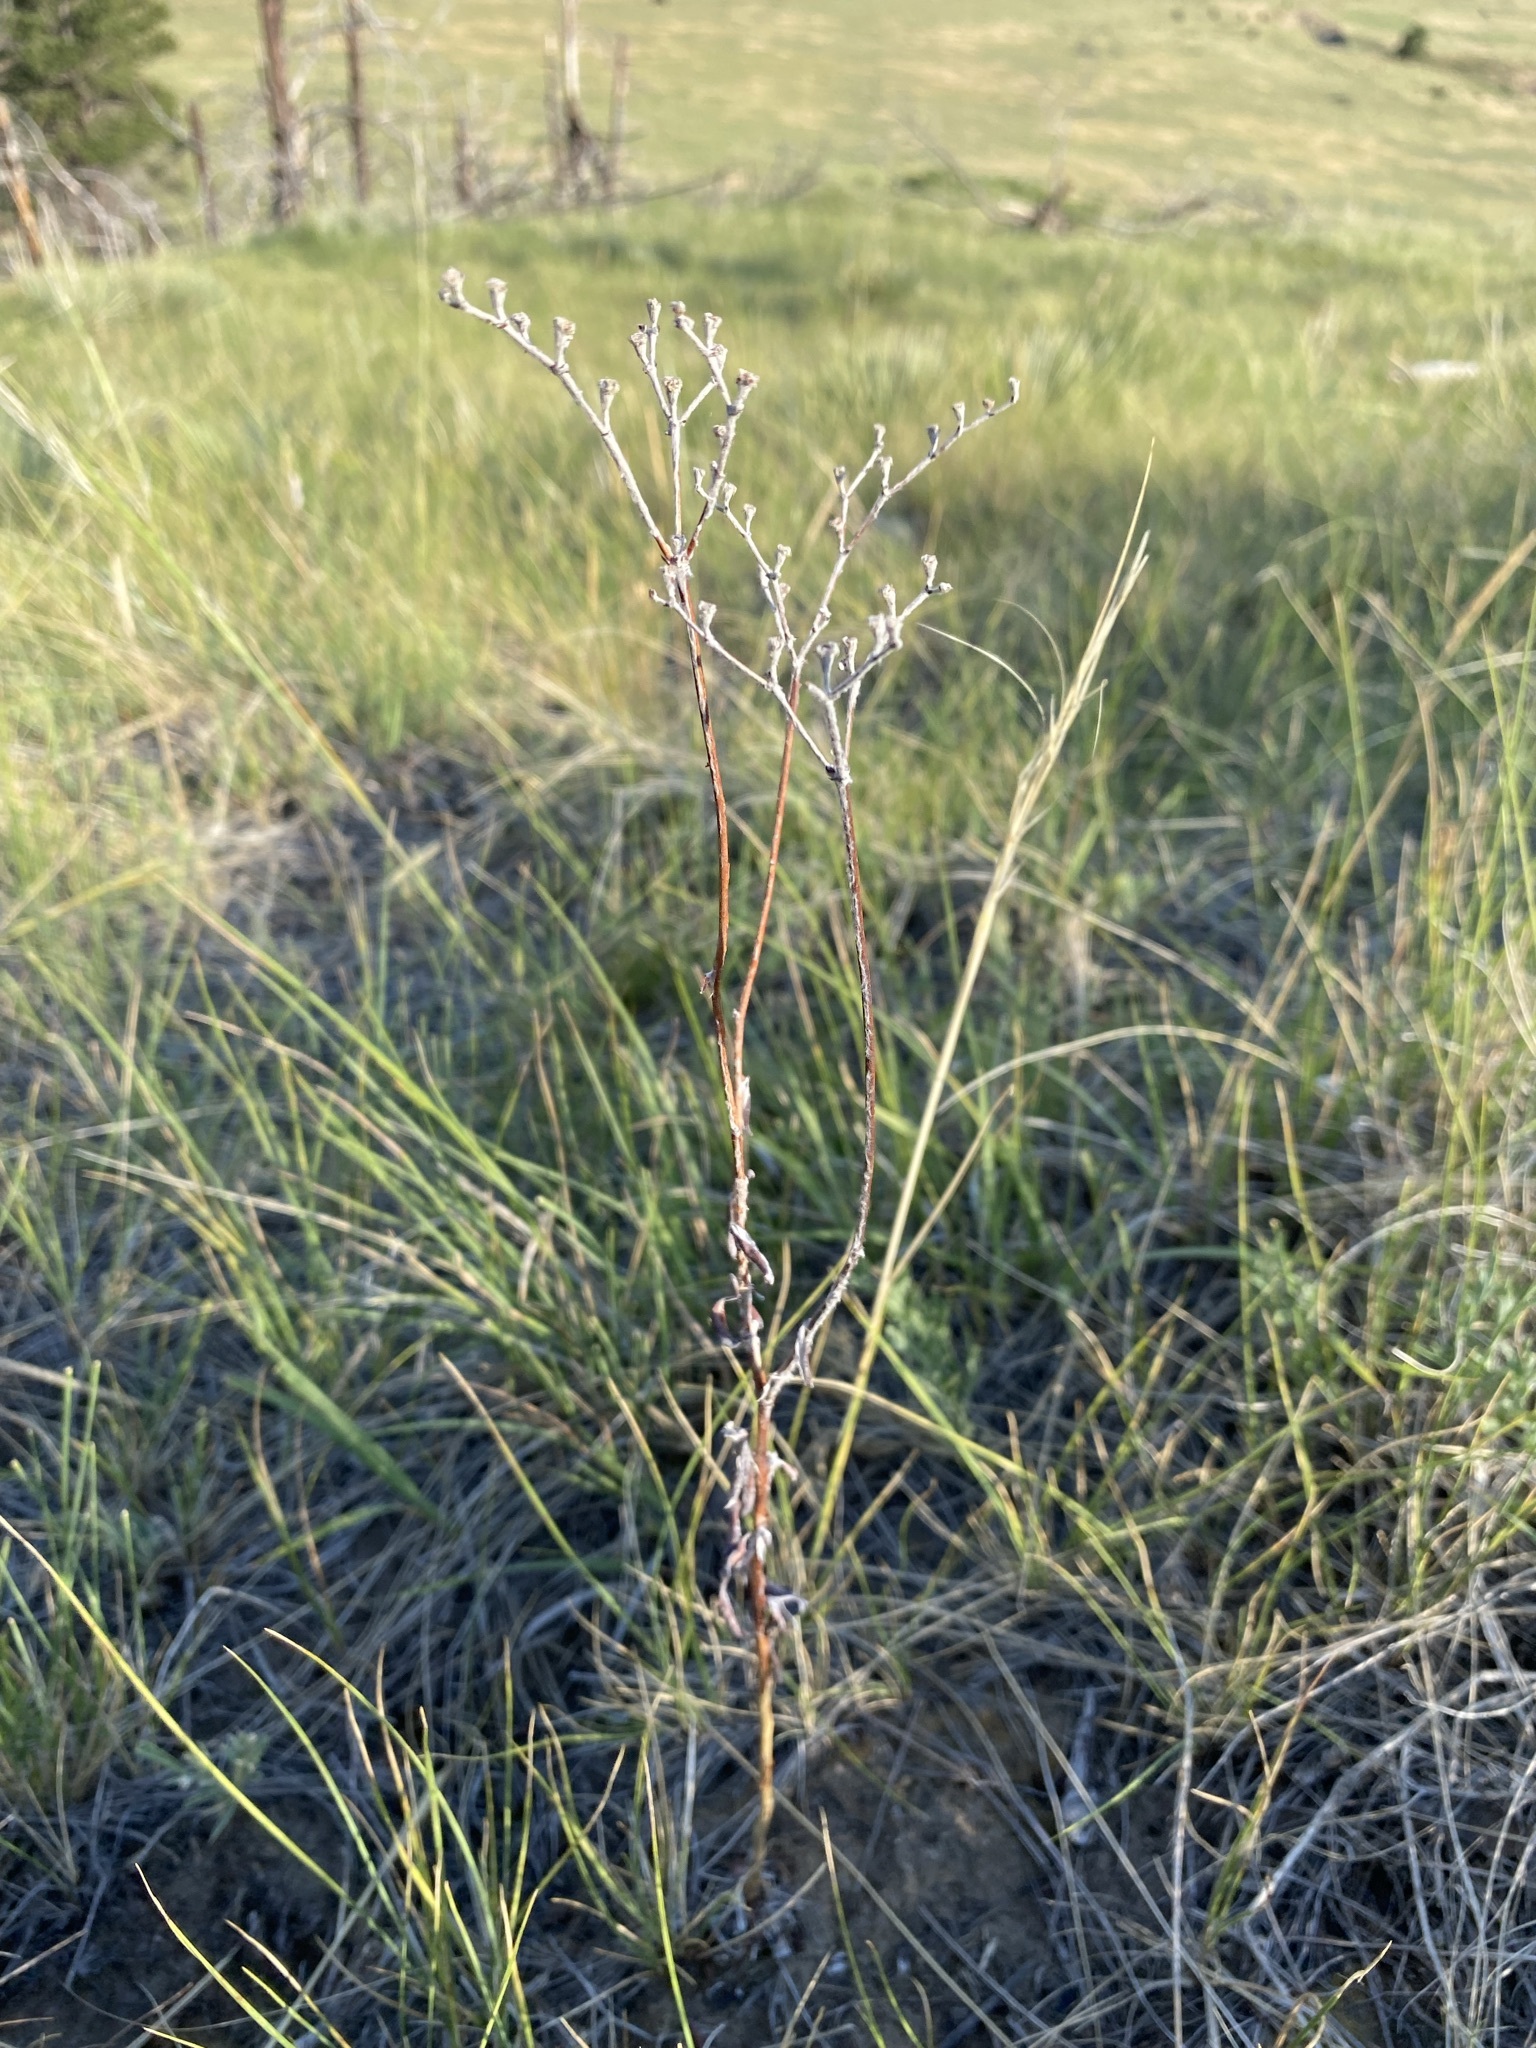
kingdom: Plantae
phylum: Tracheophyta
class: Magnoliopsida
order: Caryophyllales
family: Polygonaceae
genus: Eriogonum
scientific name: Eriogonum annuum
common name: Annual wild buckwheat
